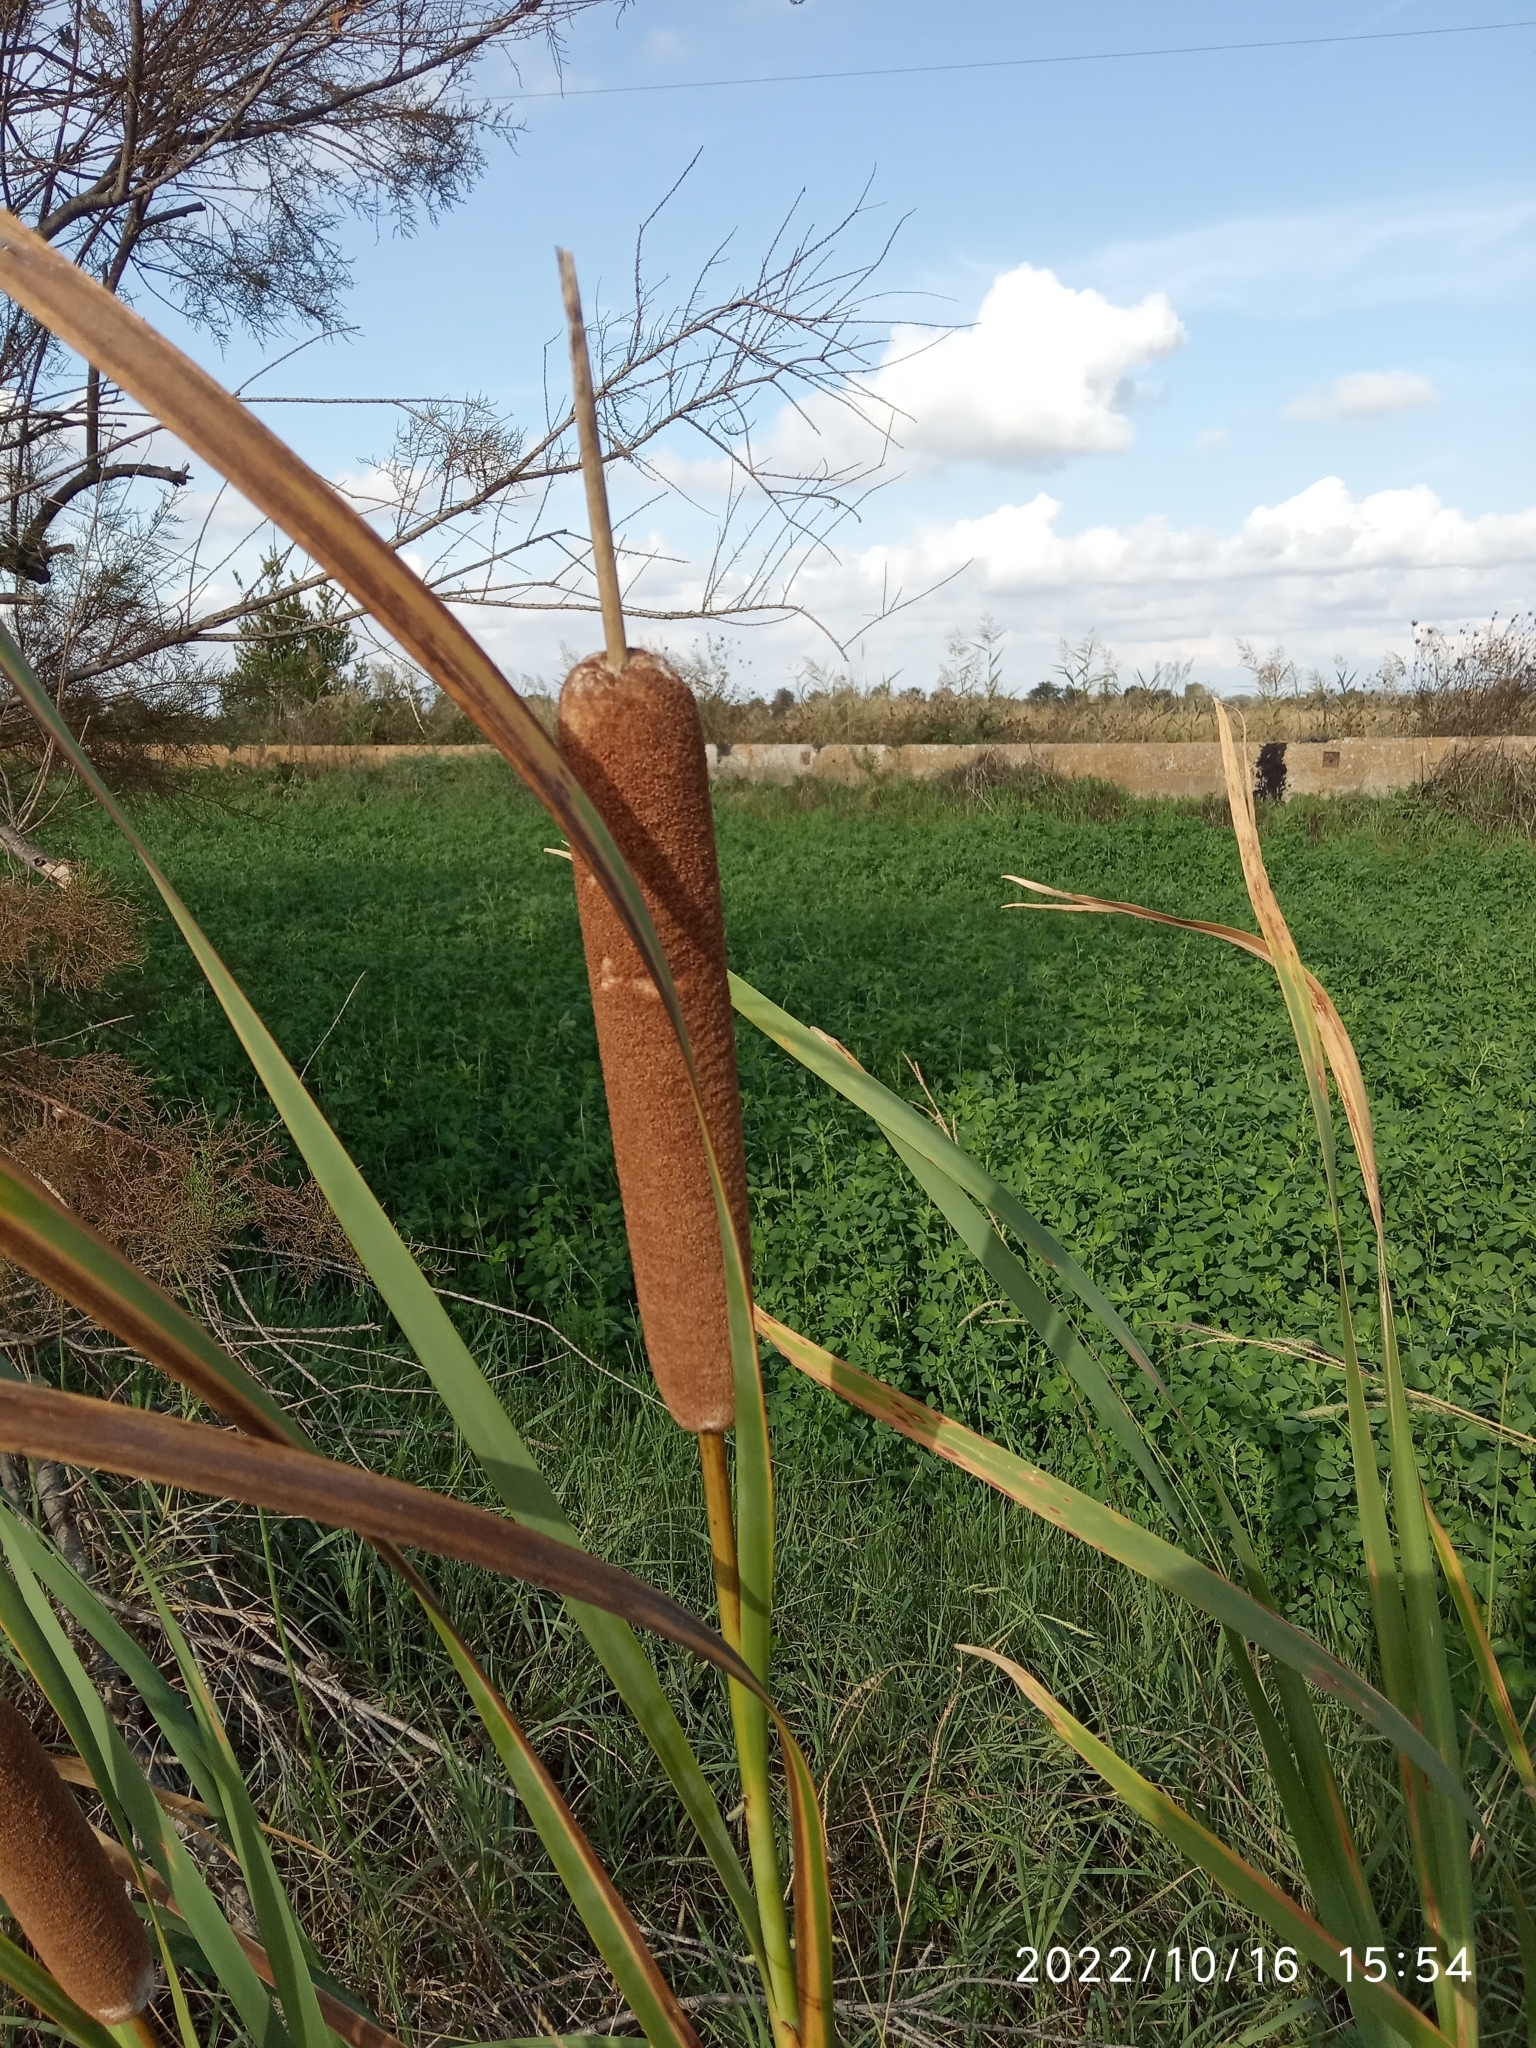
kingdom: Plantae
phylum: Tracheophyta
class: Liliopsida
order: Poales
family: Typhaceae
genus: Typha
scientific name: Typha latifolia
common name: Broadleaf cattail
